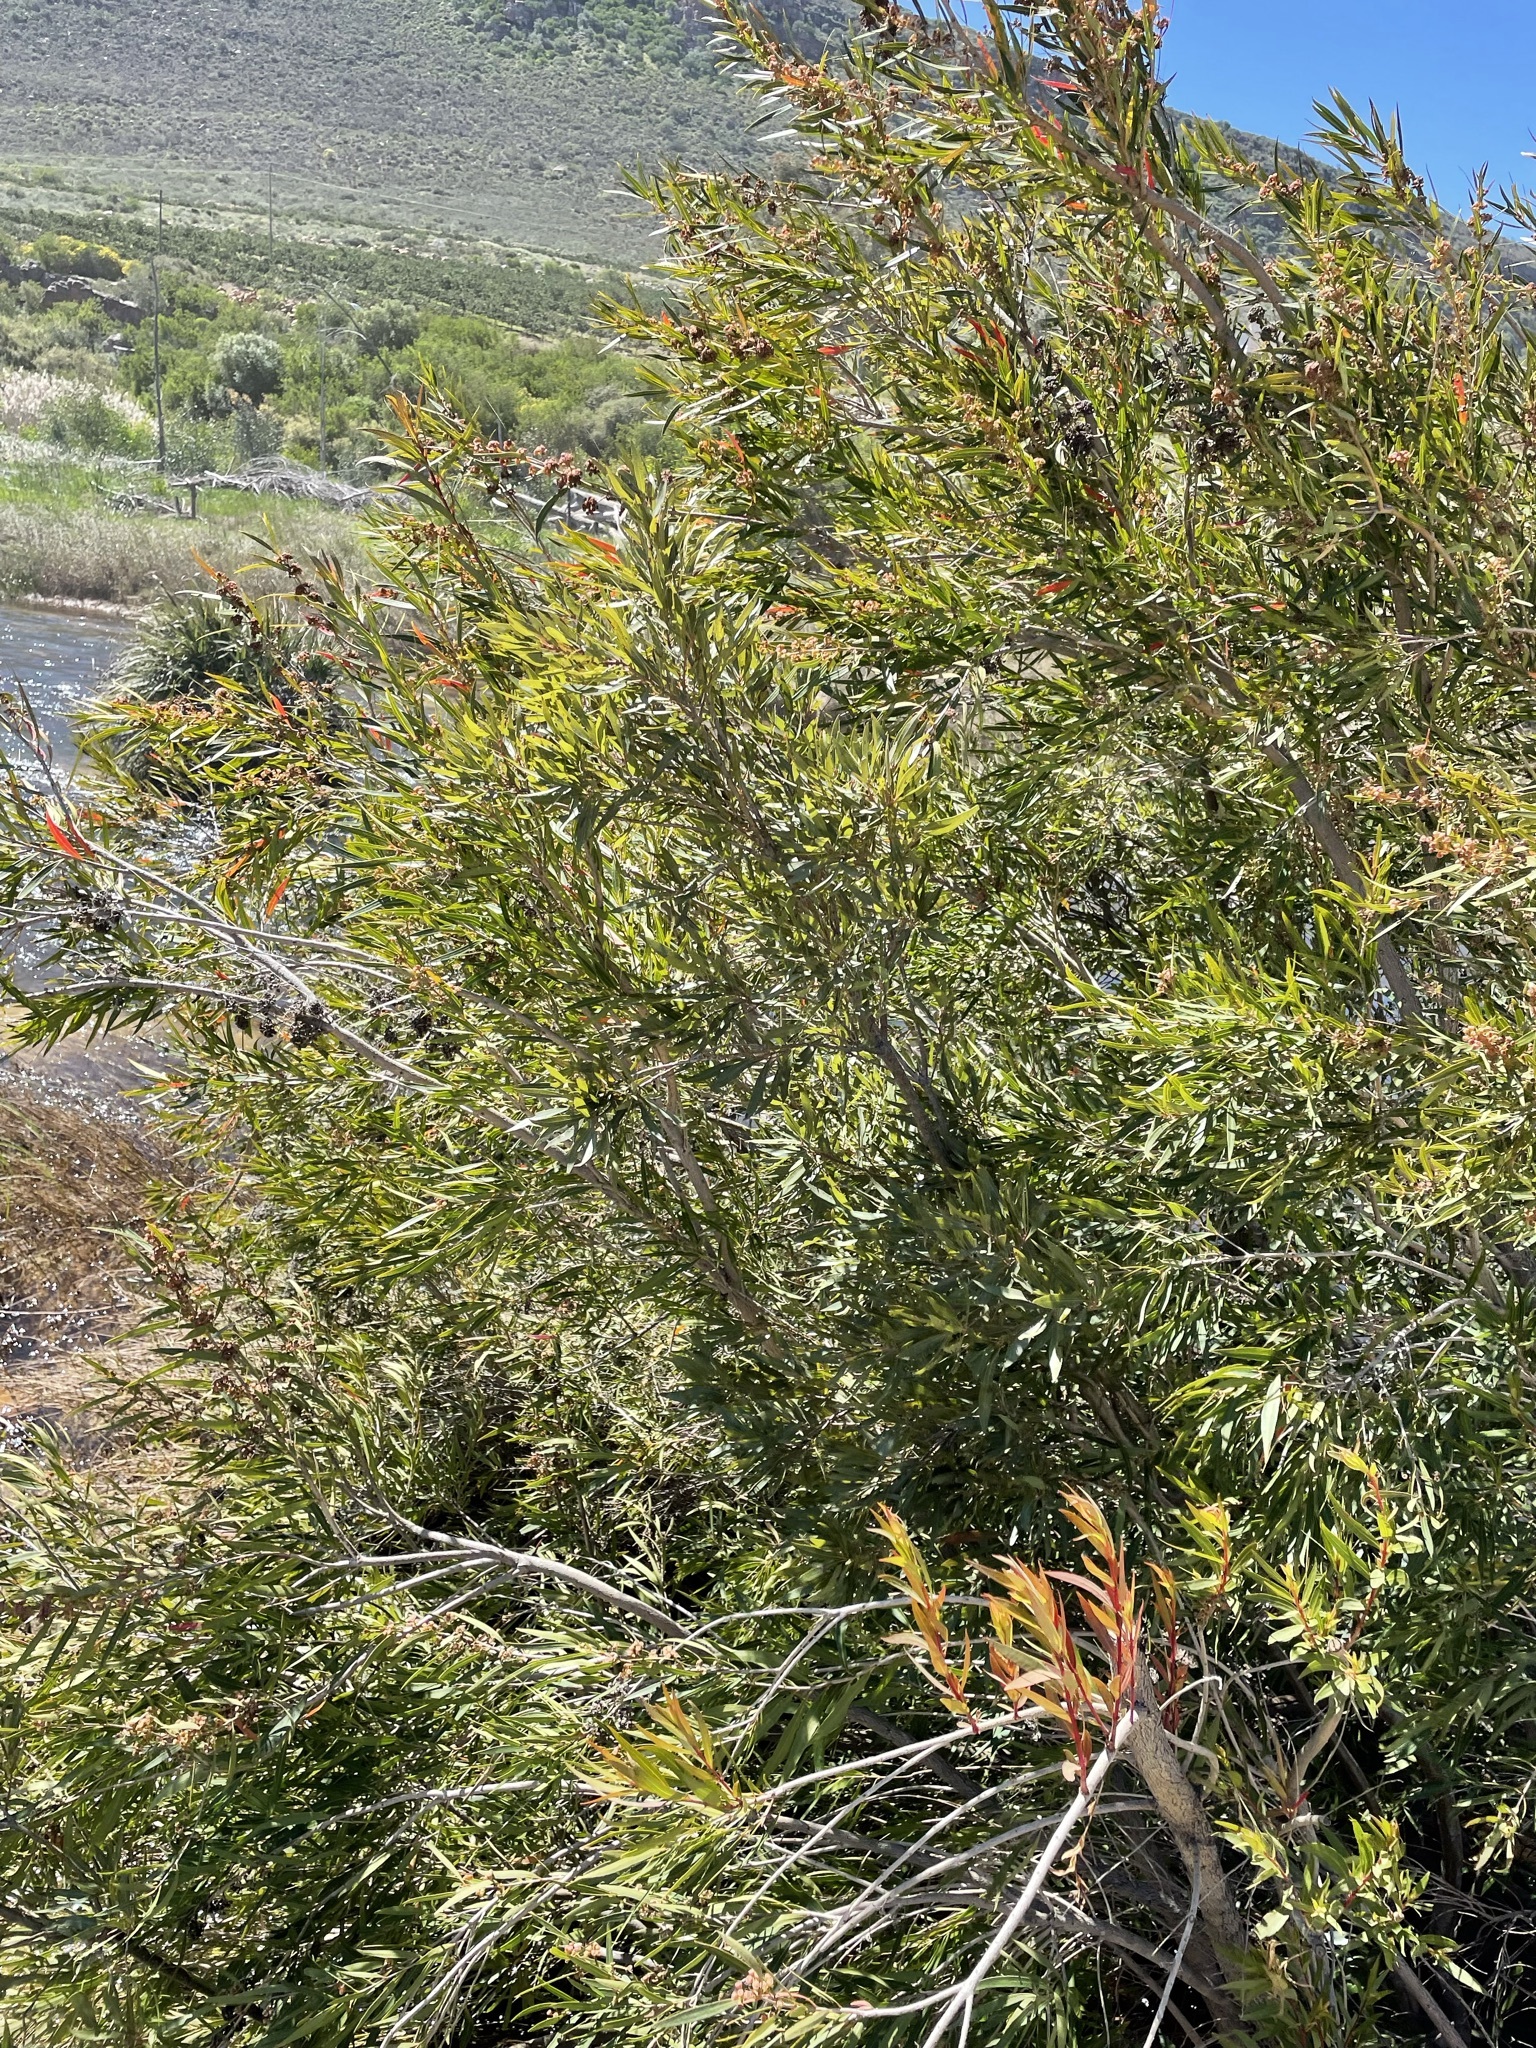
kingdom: Plantae
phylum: Tracheophyta
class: Magnoliopsida
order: Myrtales
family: Myrtaceae
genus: Callistemon
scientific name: Callistemon lanceolatus
